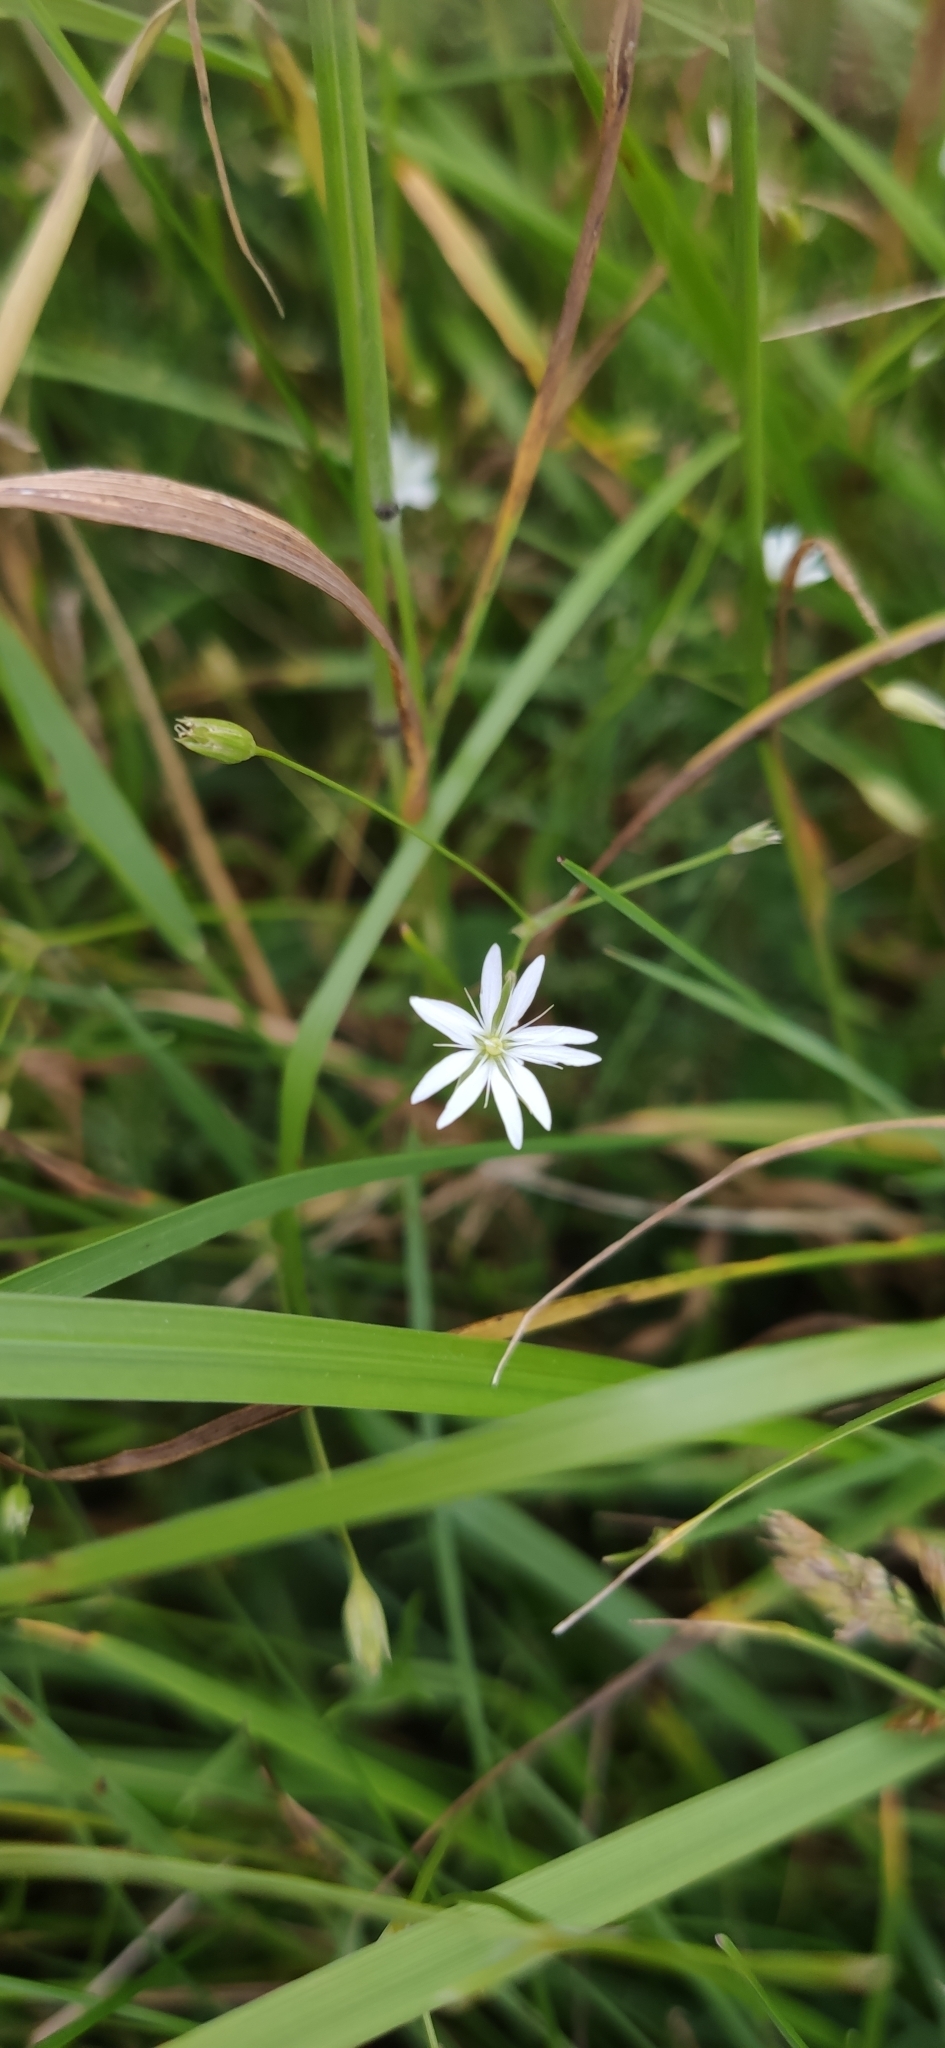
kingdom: Plantae
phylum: Tracheophyta
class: Magnoliopsida
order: Caryophyllales
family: Caryophyllaceae
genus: Stellaria
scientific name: Stellaria graminea
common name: Grass-like starwort
